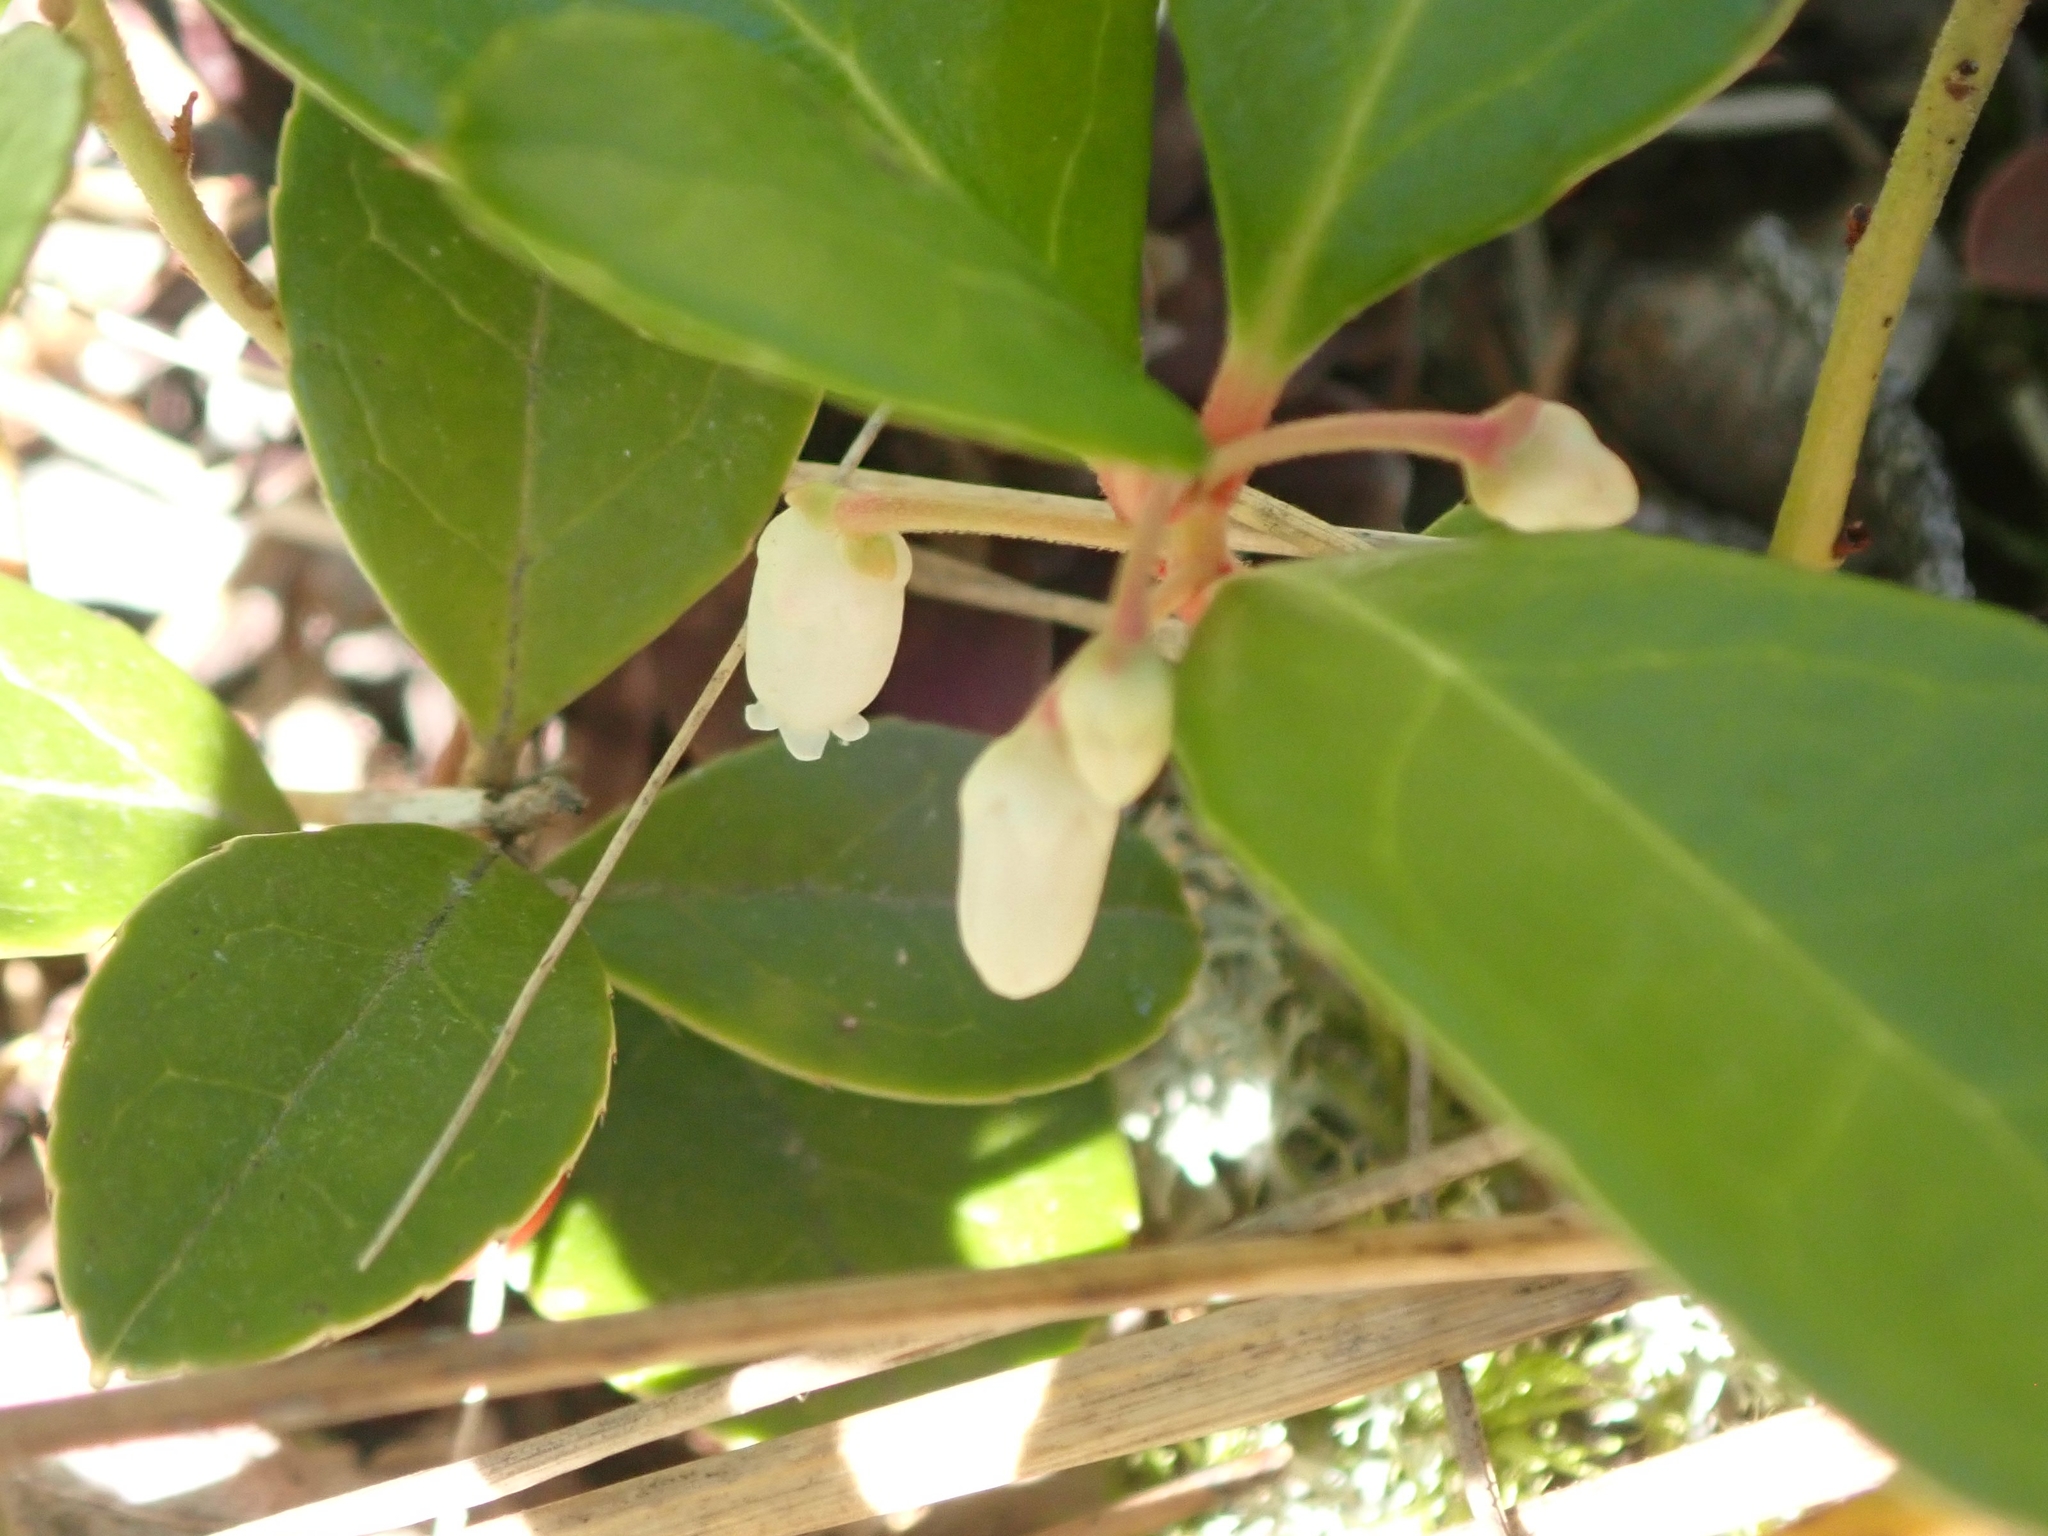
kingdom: Plantae
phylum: Tracheophyta
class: Magnoliopsida
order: Ericales
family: Ericaceae
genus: Gaultheria
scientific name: Gaultheria procumbens
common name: Checkerberry
